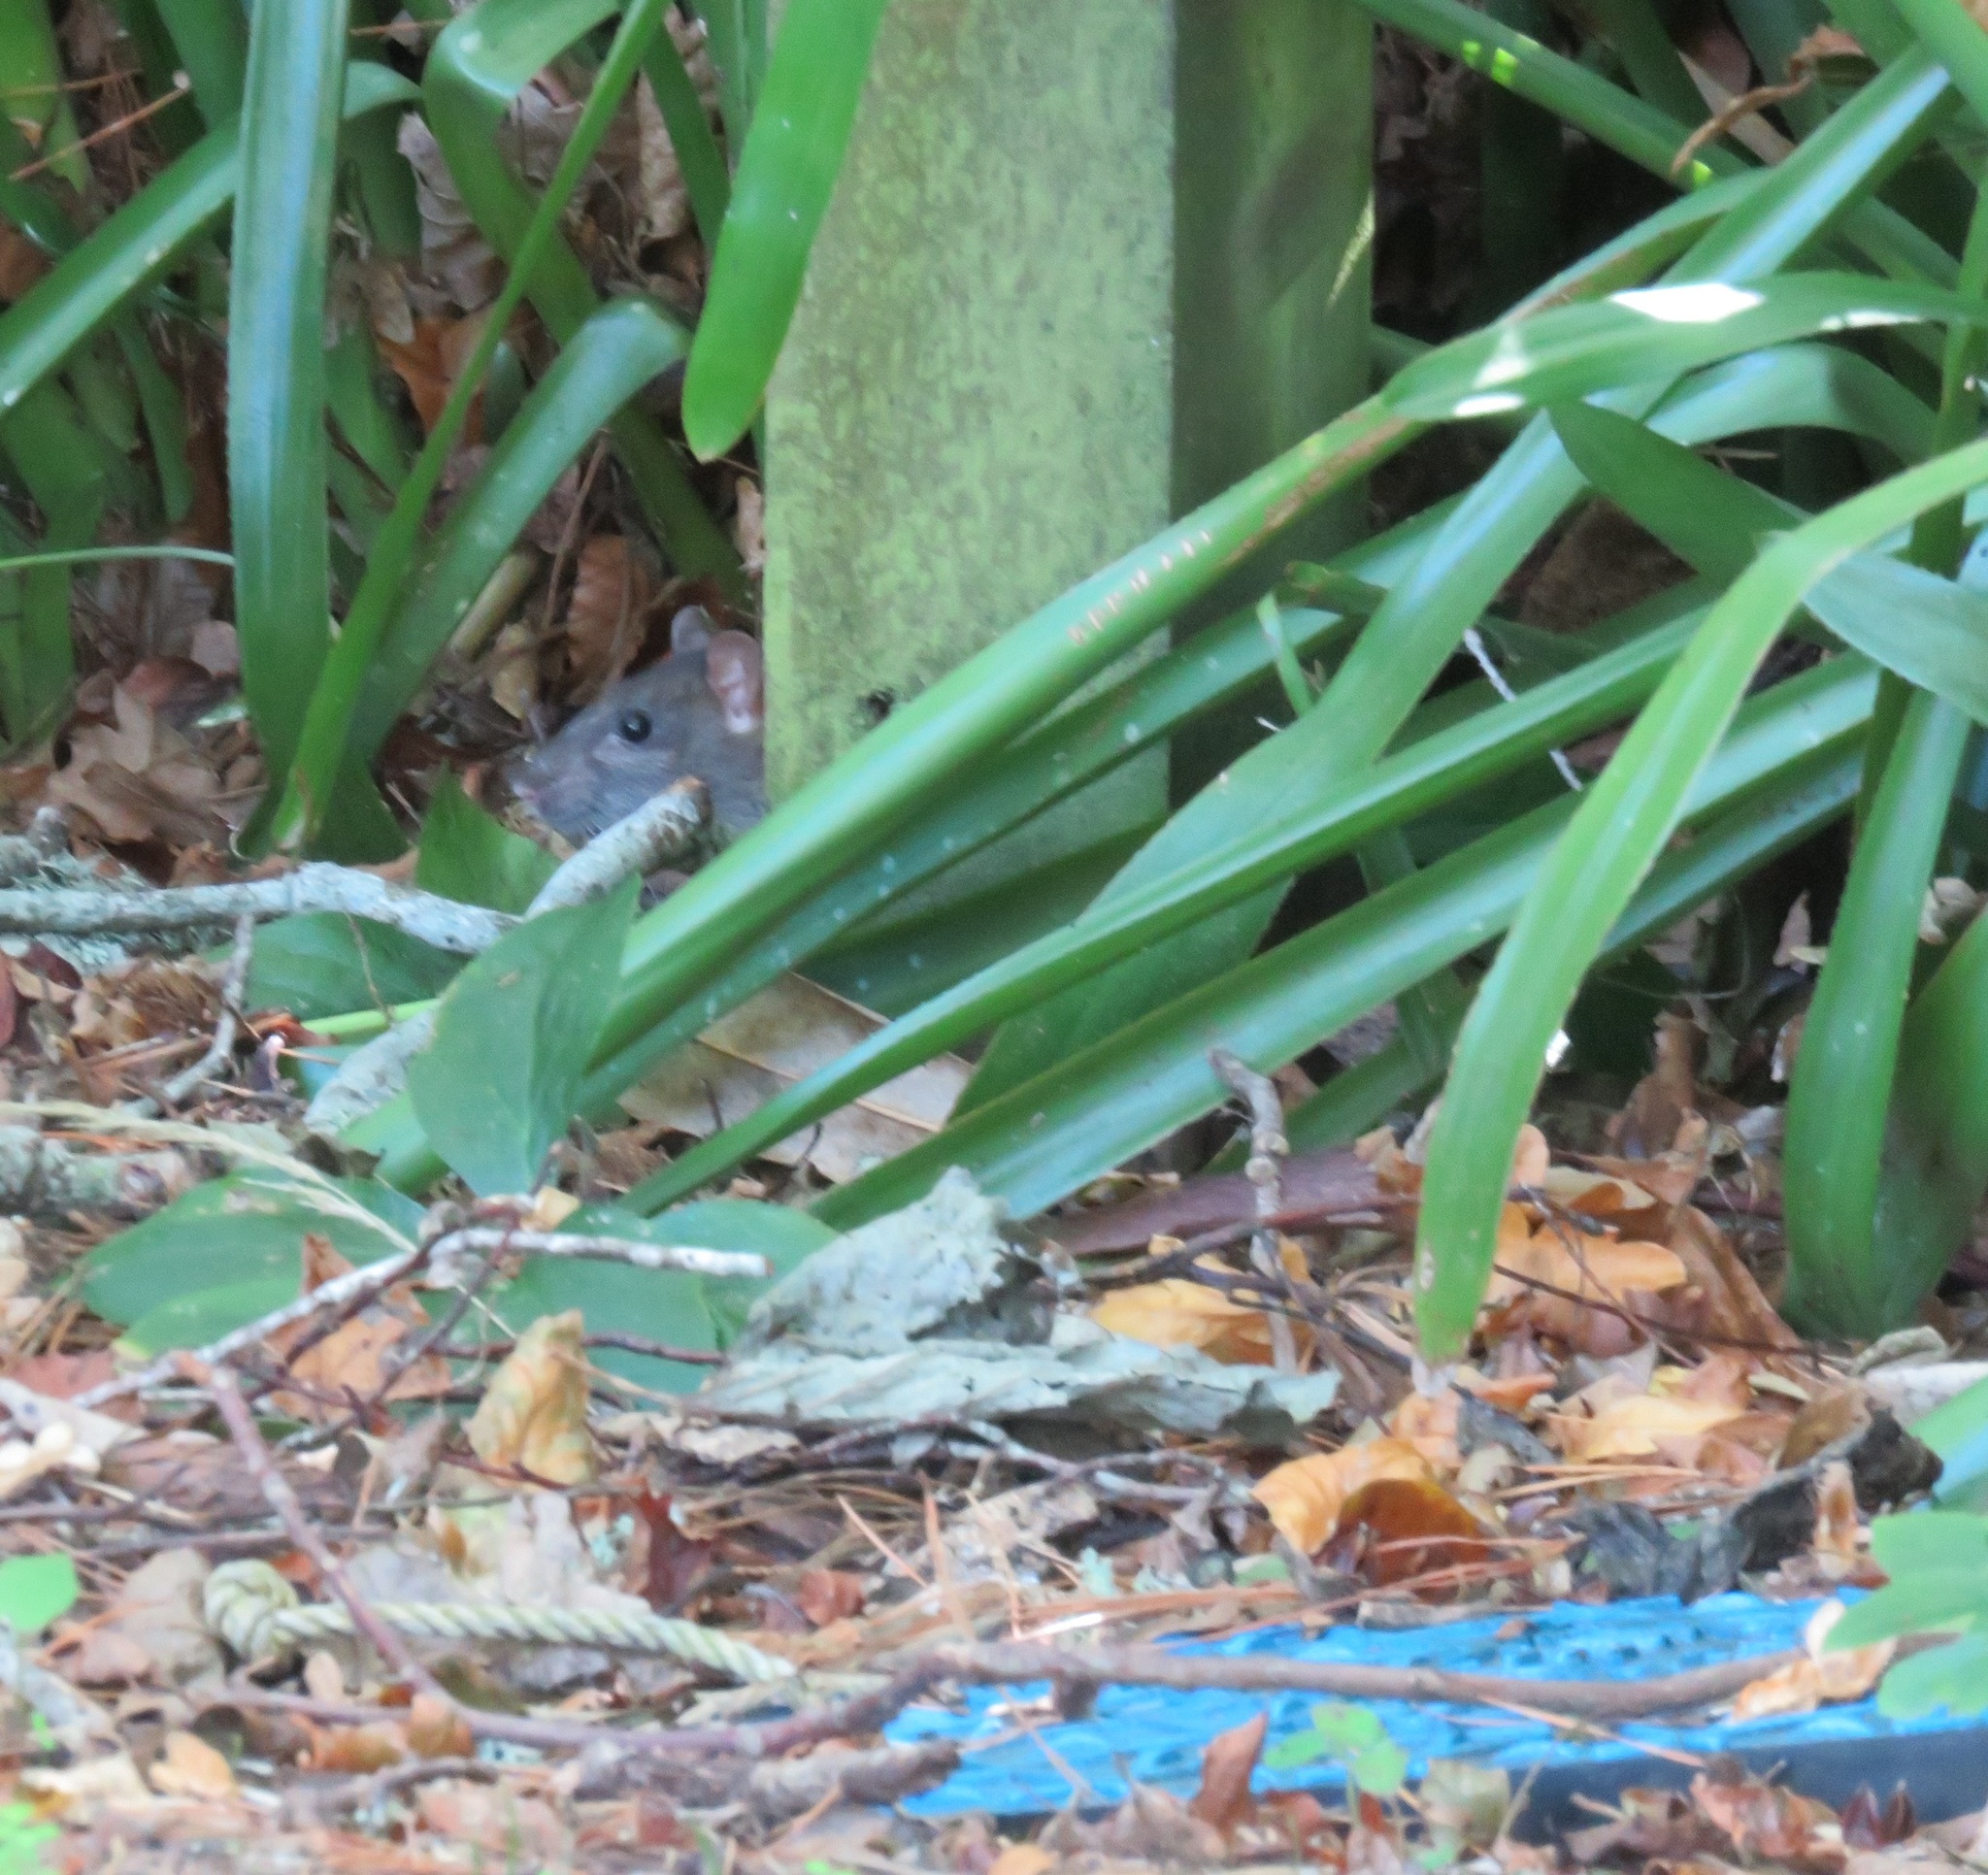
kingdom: Animalia
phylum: Chordata
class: Mammalia
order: Rodentia
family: Muridae
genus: Rattus
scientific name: Rattus norvegicus
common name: Brown rat
